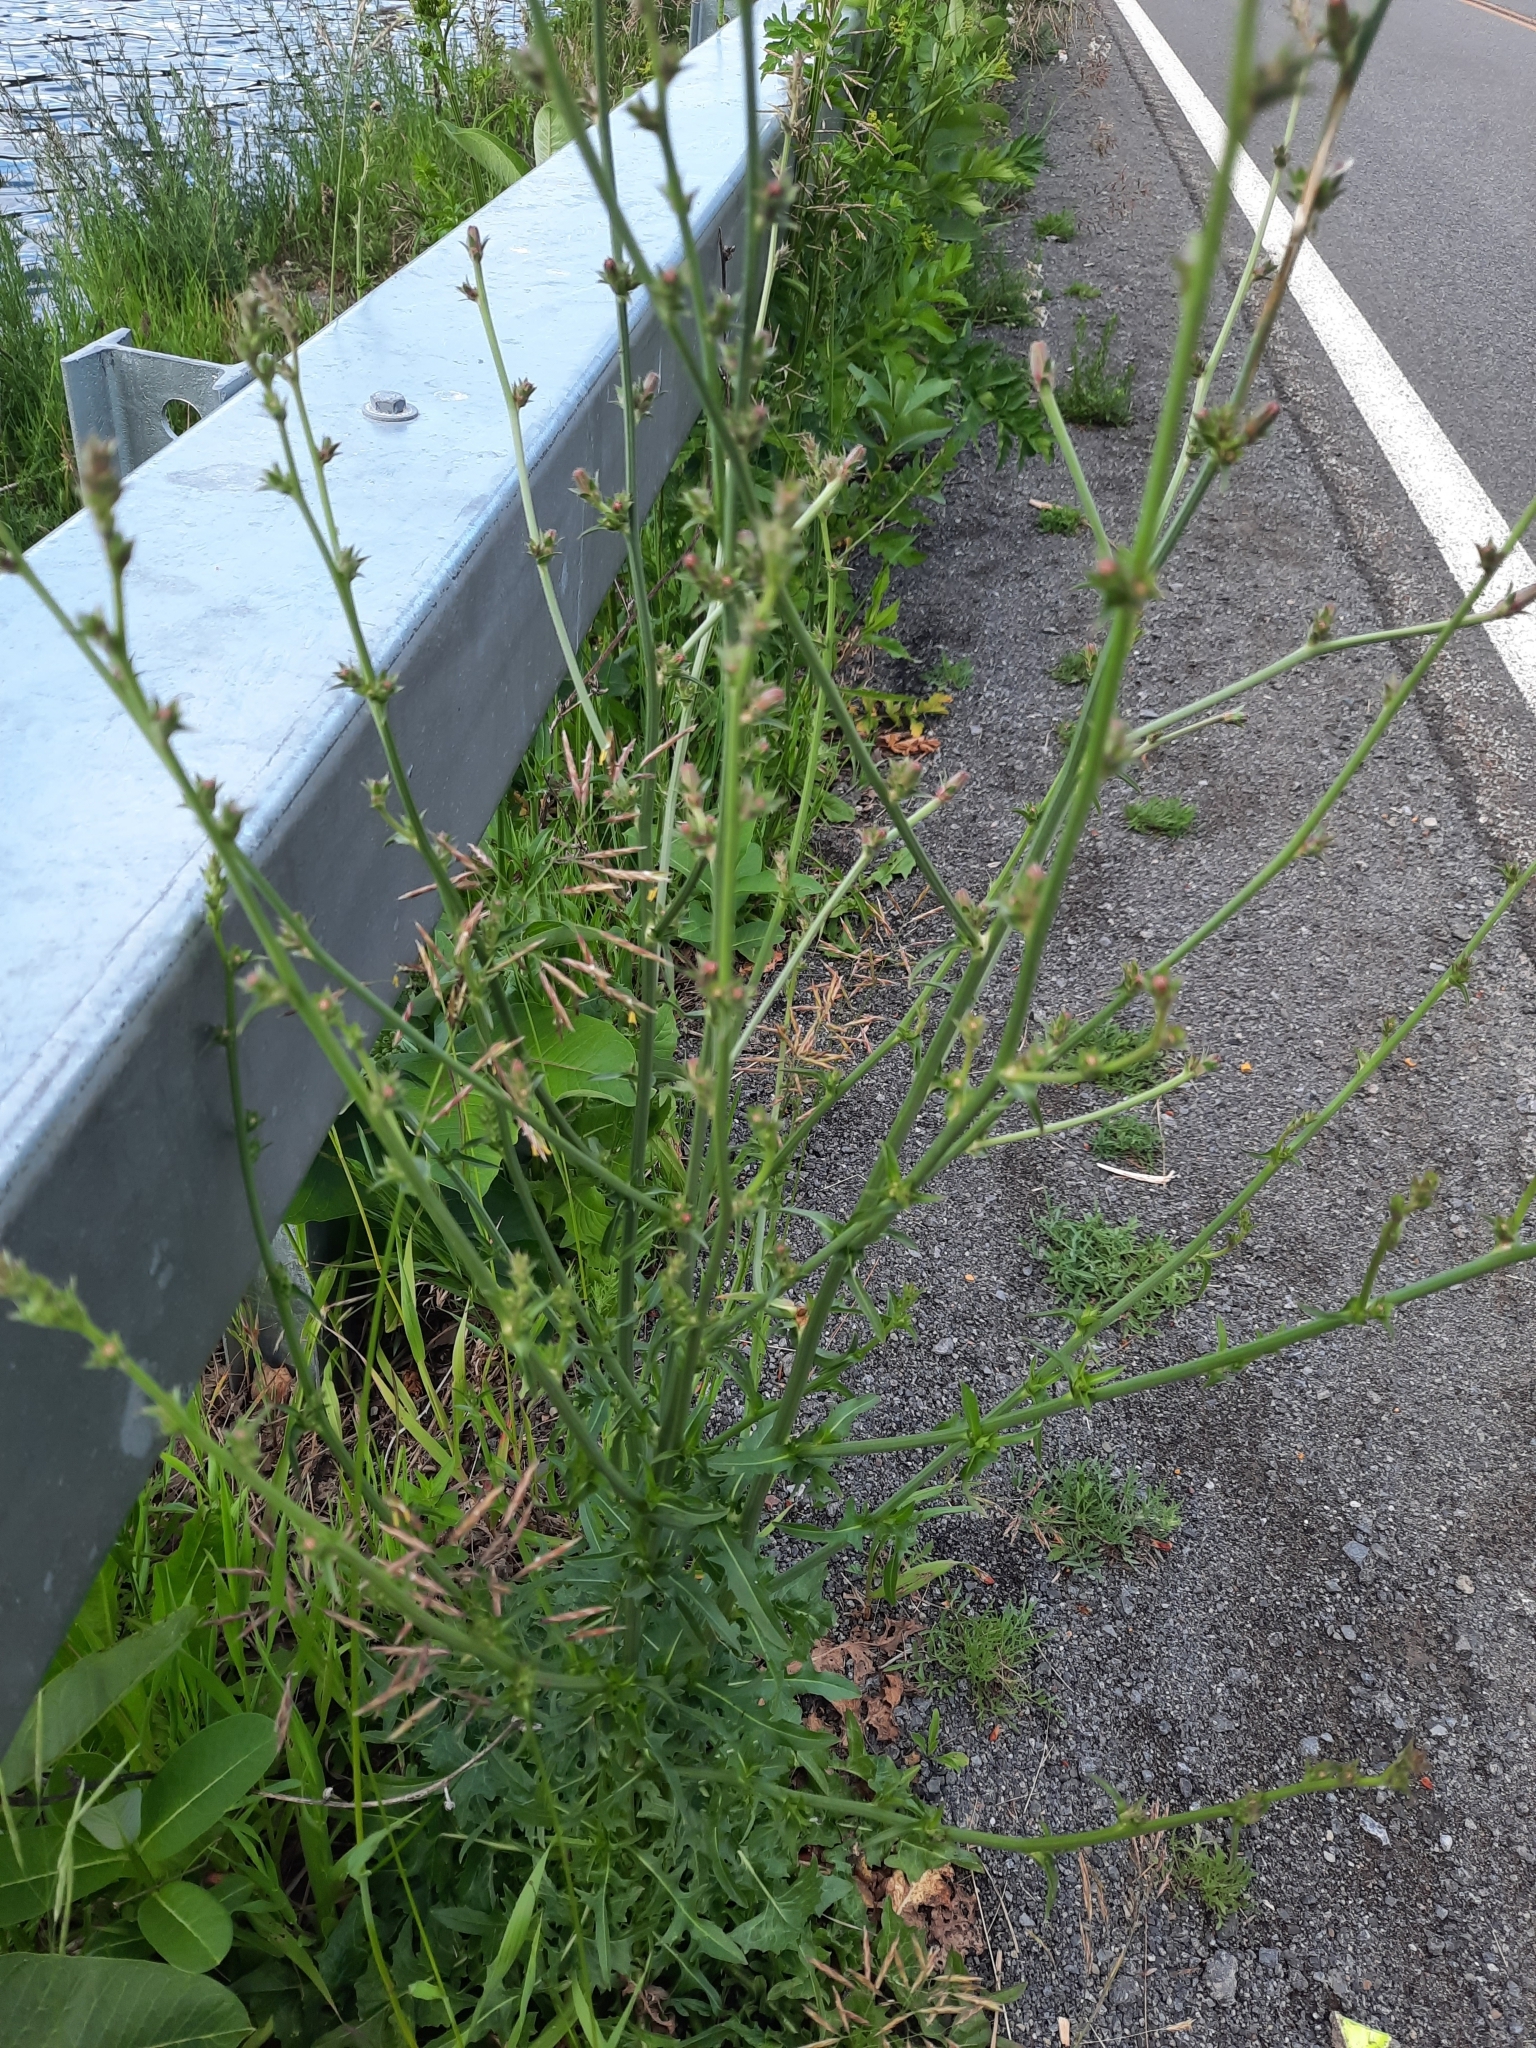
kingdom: Plantae
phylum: Tracheophyta
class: Magnoliopsida
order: Asterales
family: Asteraceae
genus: Cichorium
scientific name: Cichorium intybus
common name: Chicory
